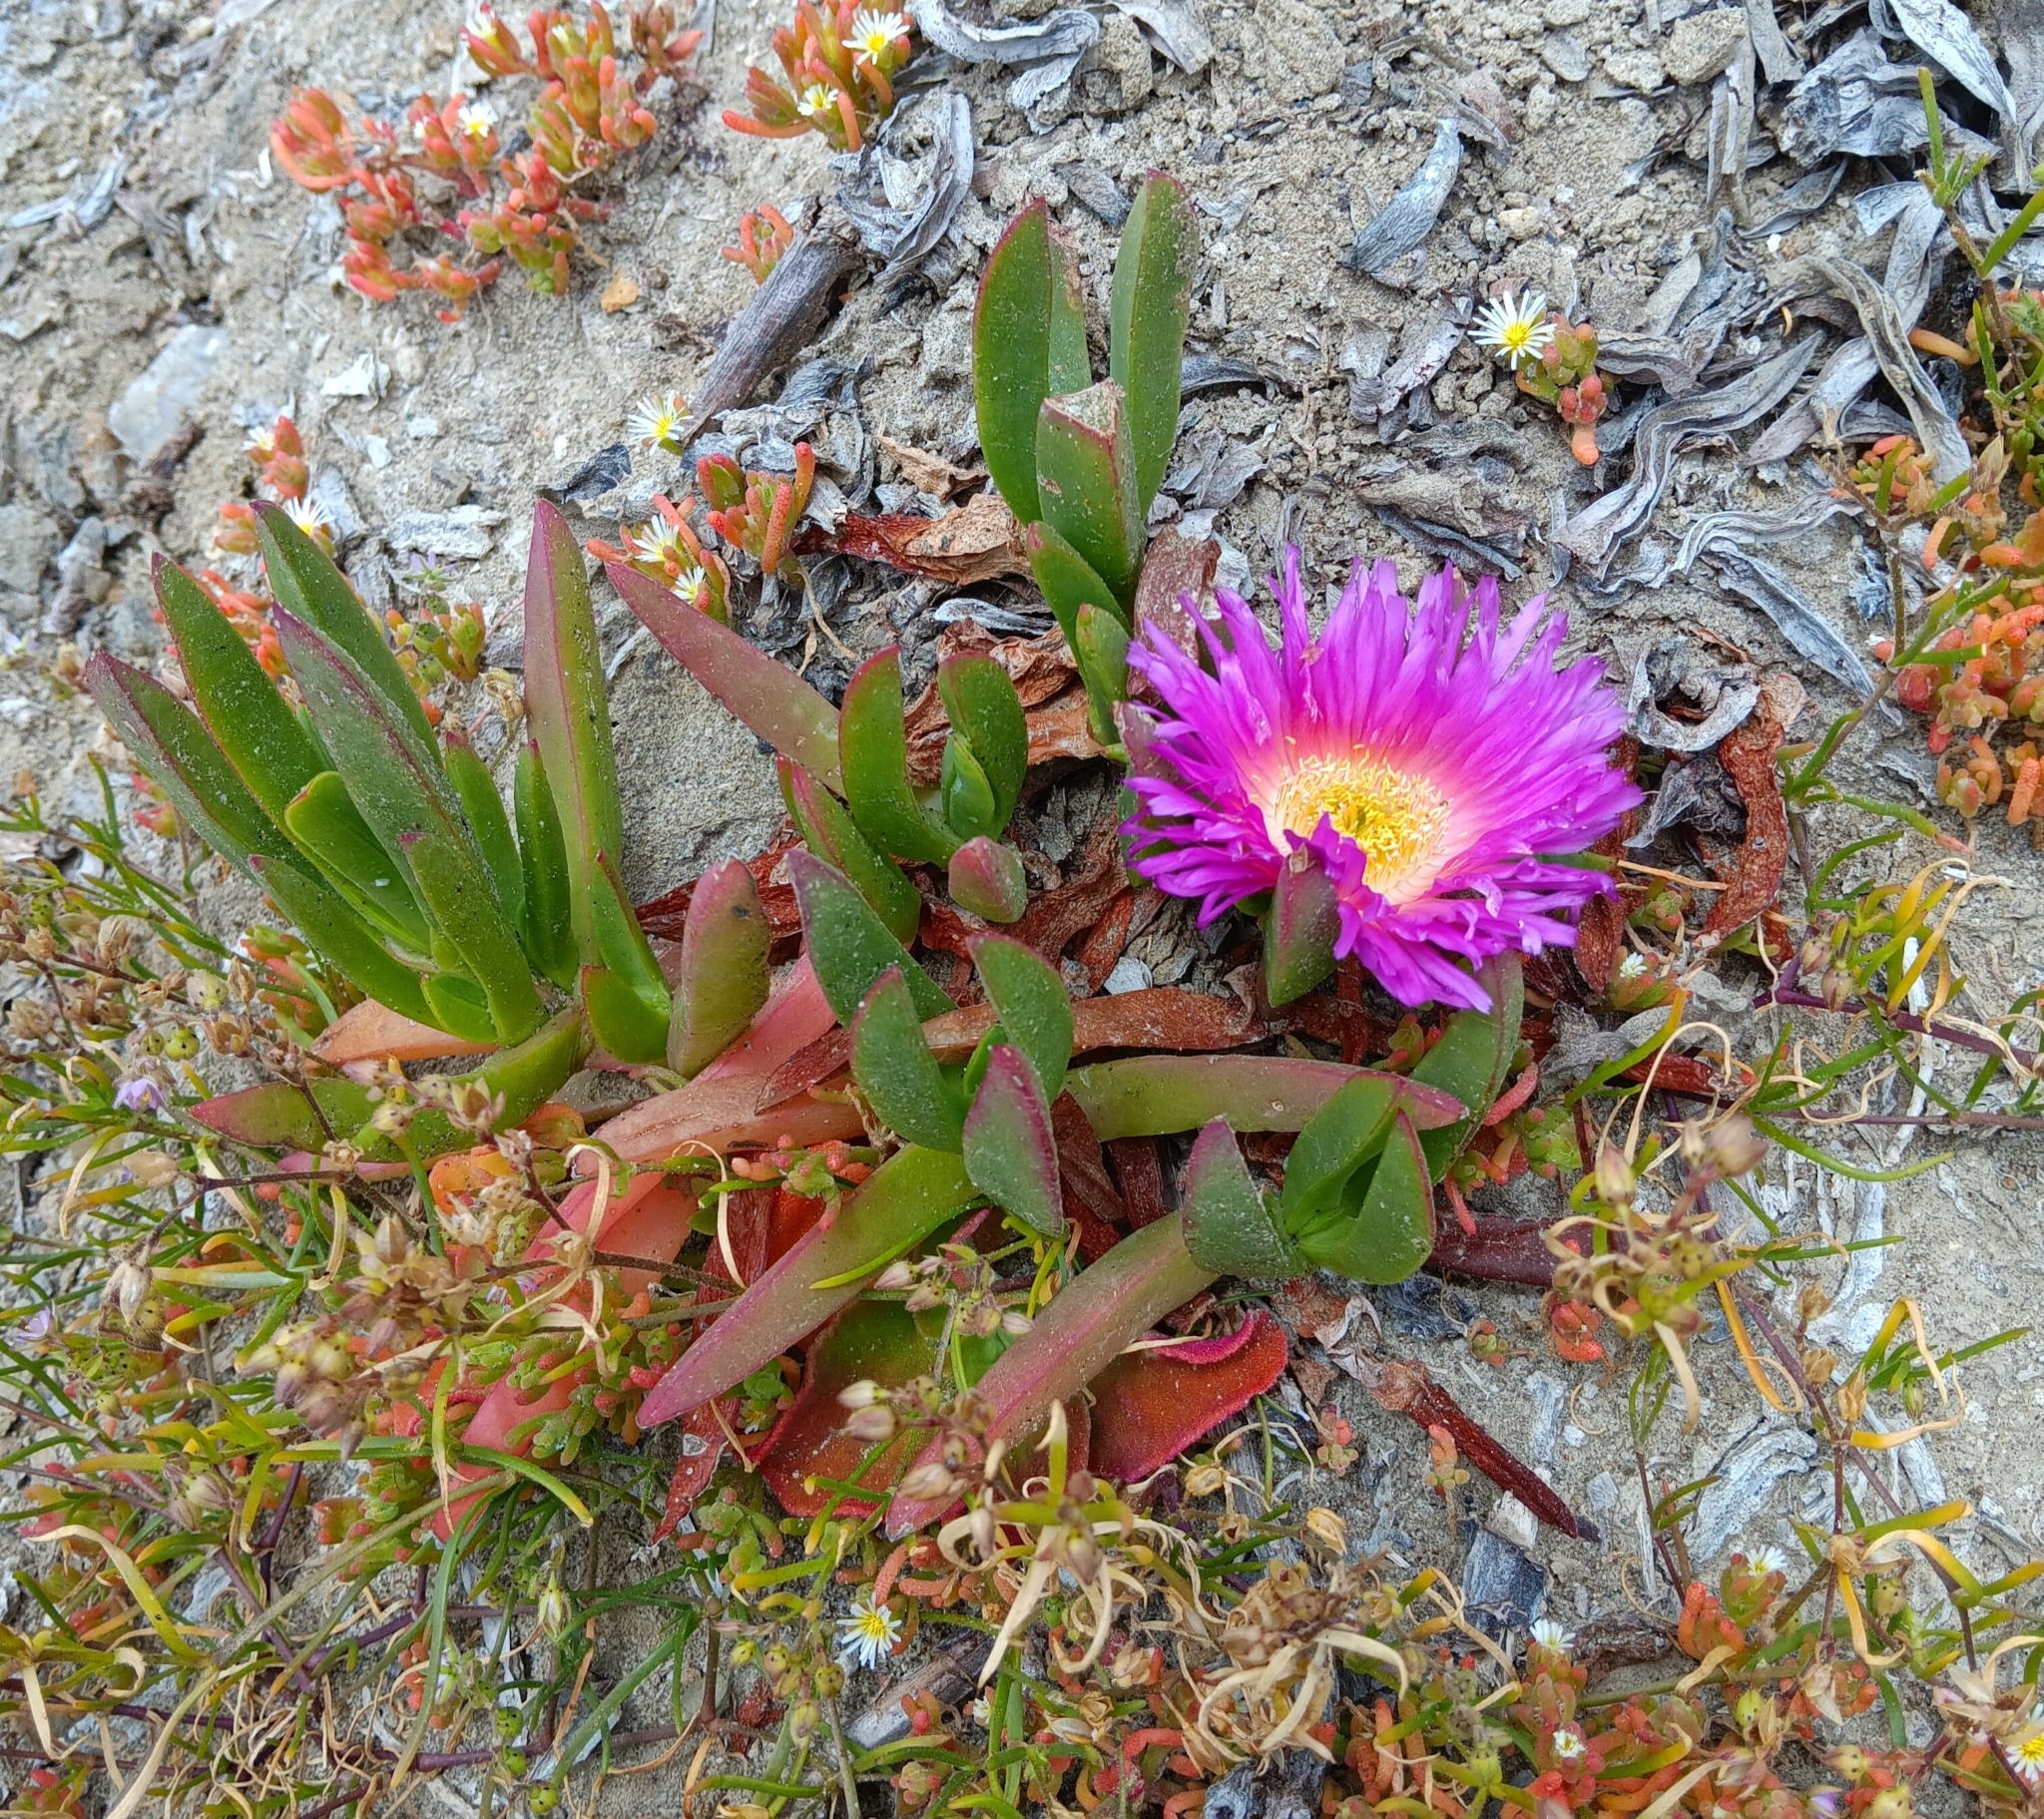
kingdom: Plantae
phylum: Tracheophyta
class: Magnoliopsida
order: Caryophyllales
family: Aizoaceae
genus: Carpobrotus
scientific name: Carpobrotus chilensis
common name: Sea fig
